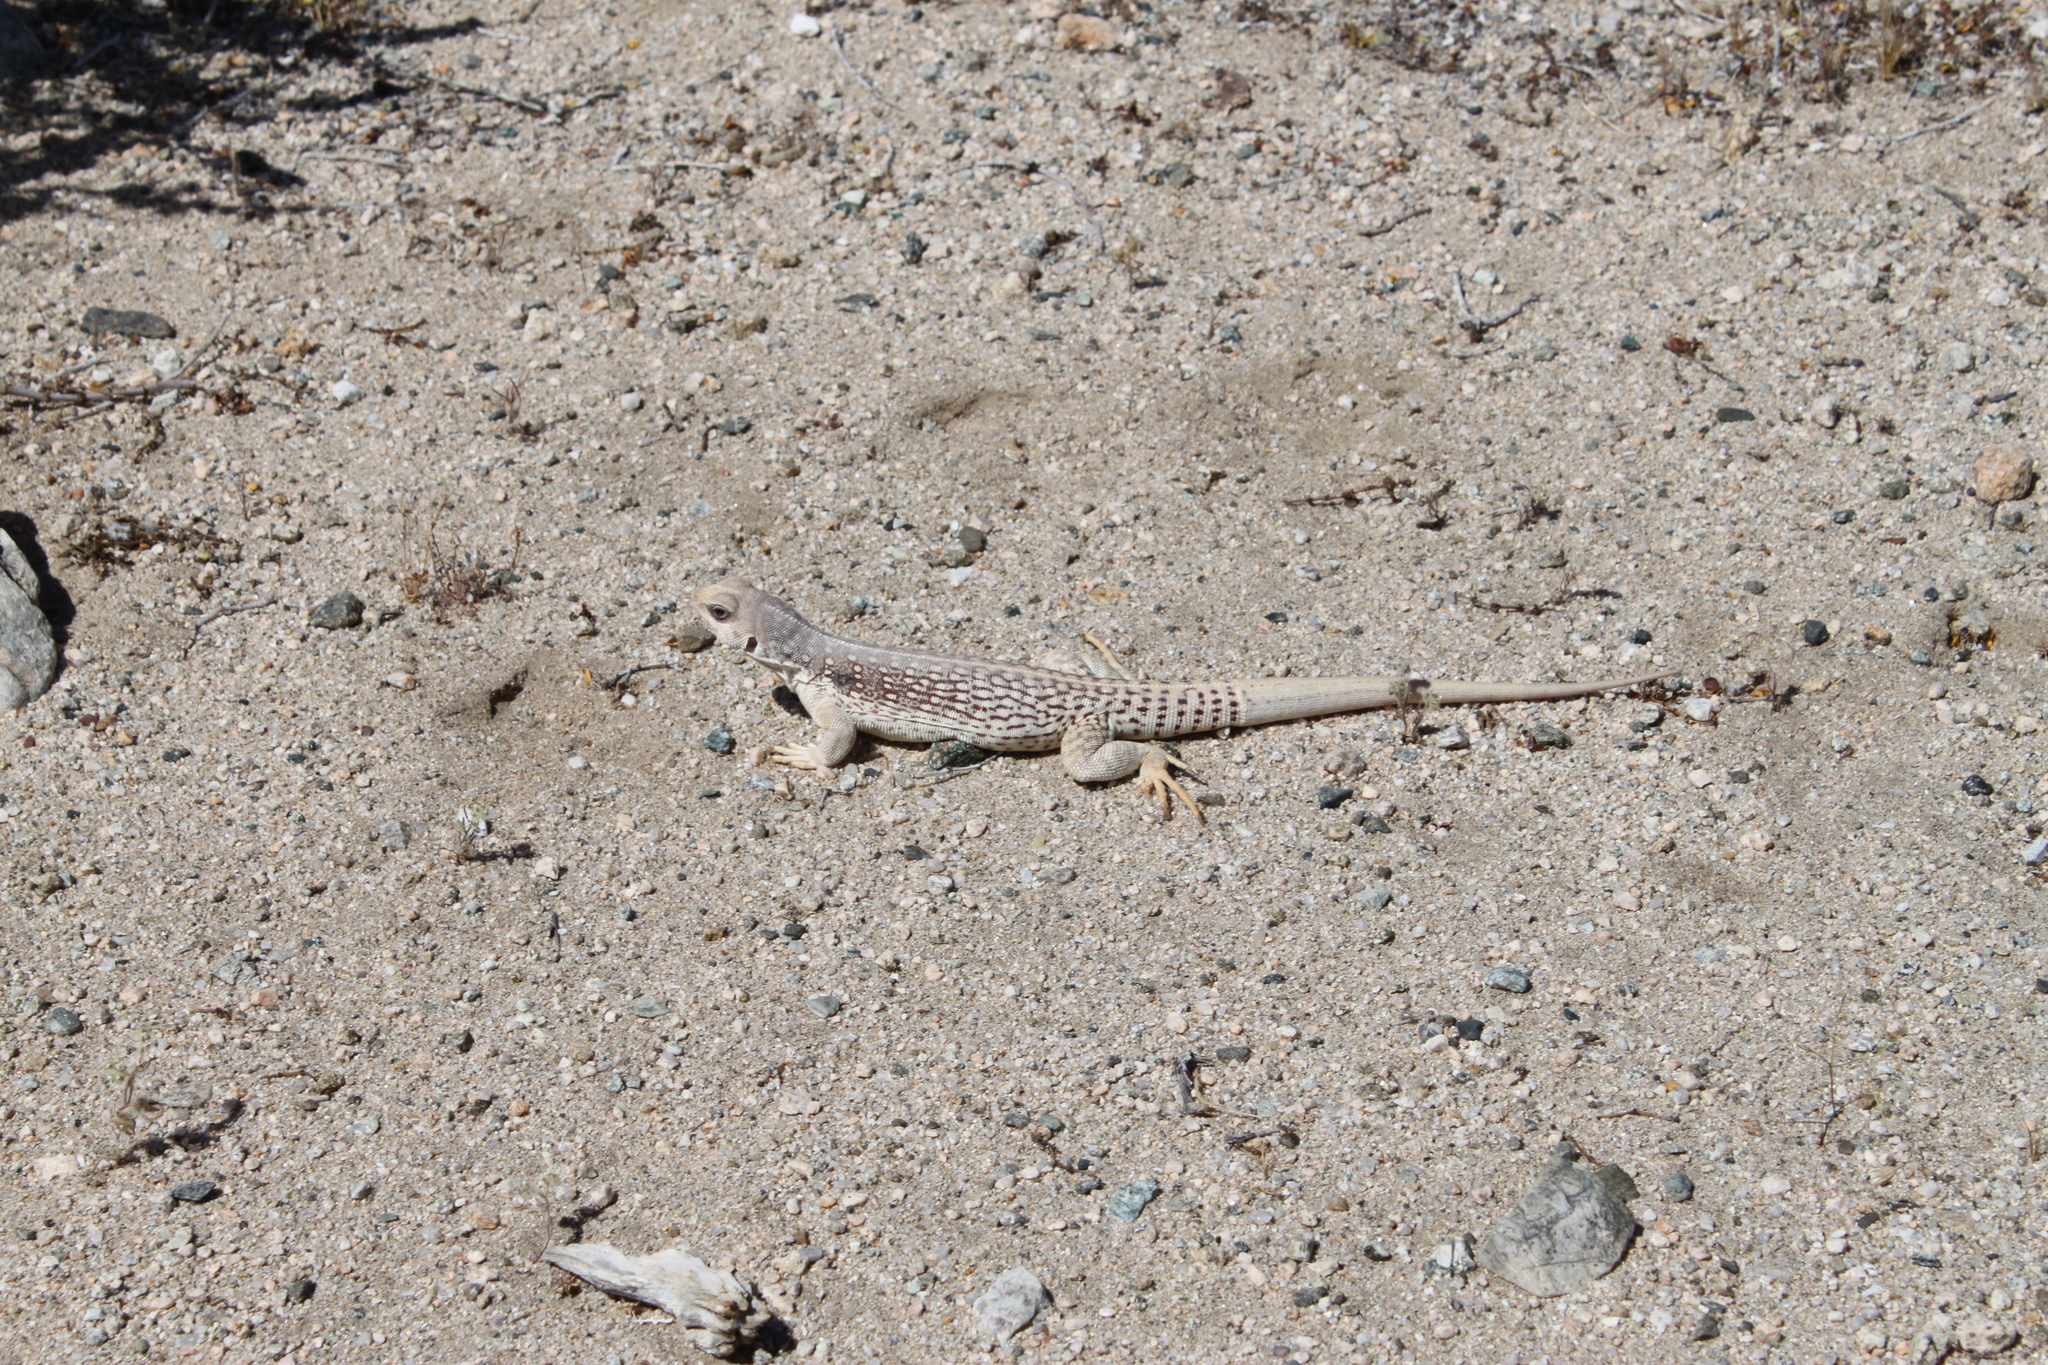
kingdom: Animalia
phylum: Chordata
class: Squamata
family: Iguanidae
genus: Dipsosaurus
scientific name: Dipsosaurus dorsalis
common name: Desert iguana
